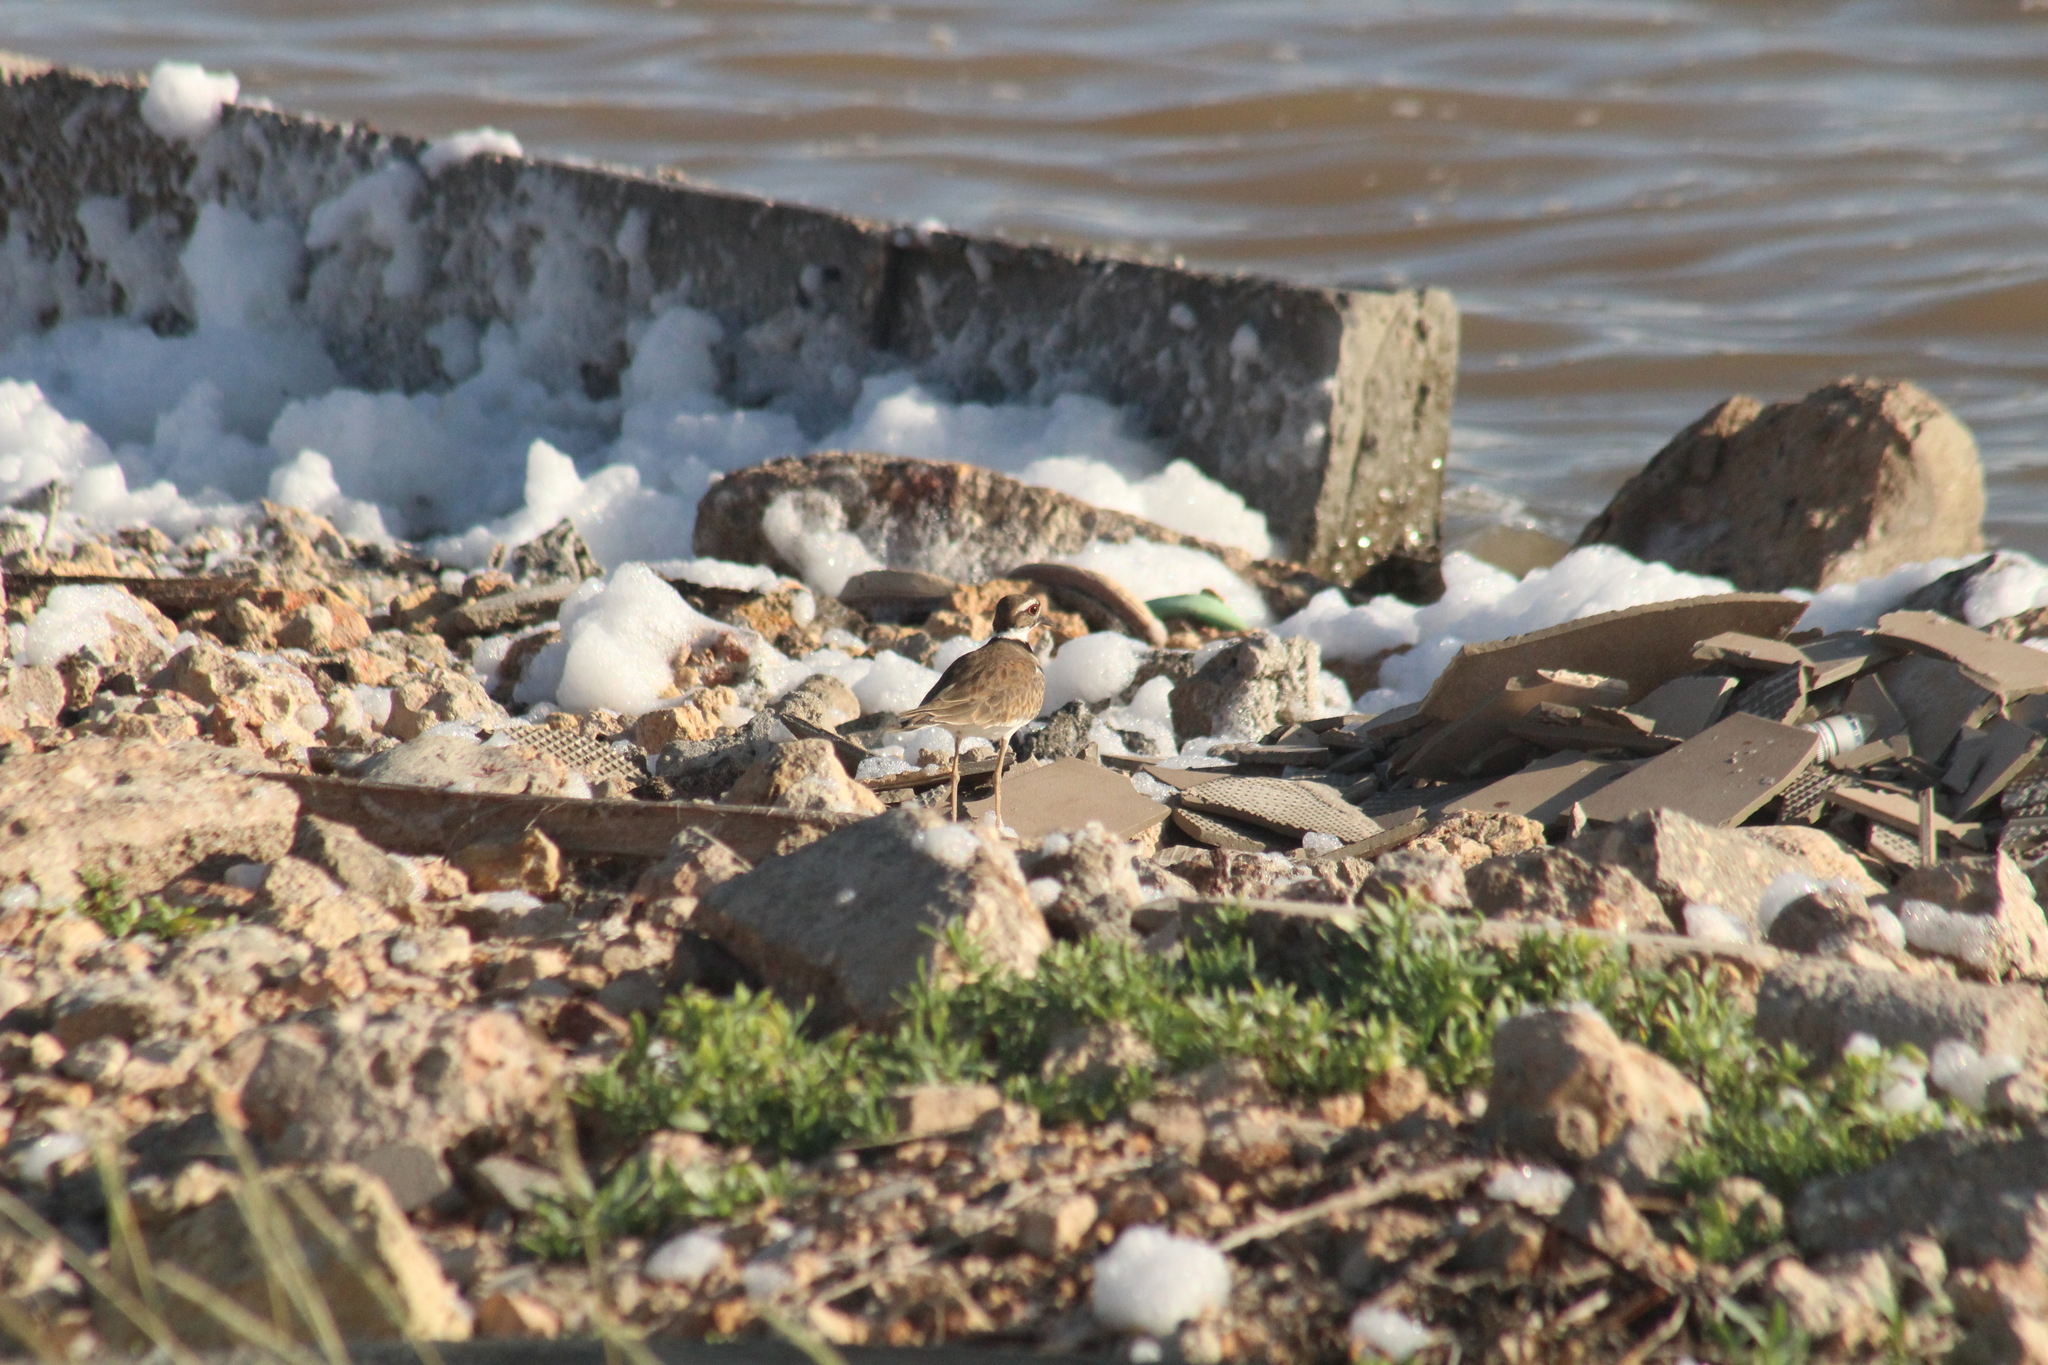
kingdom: Animalia
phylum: Chordata
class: Aves
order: Charadriiformes
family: Charadriidae
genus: Charadrius
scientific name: Charadrius vociferus
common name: Killdeer
